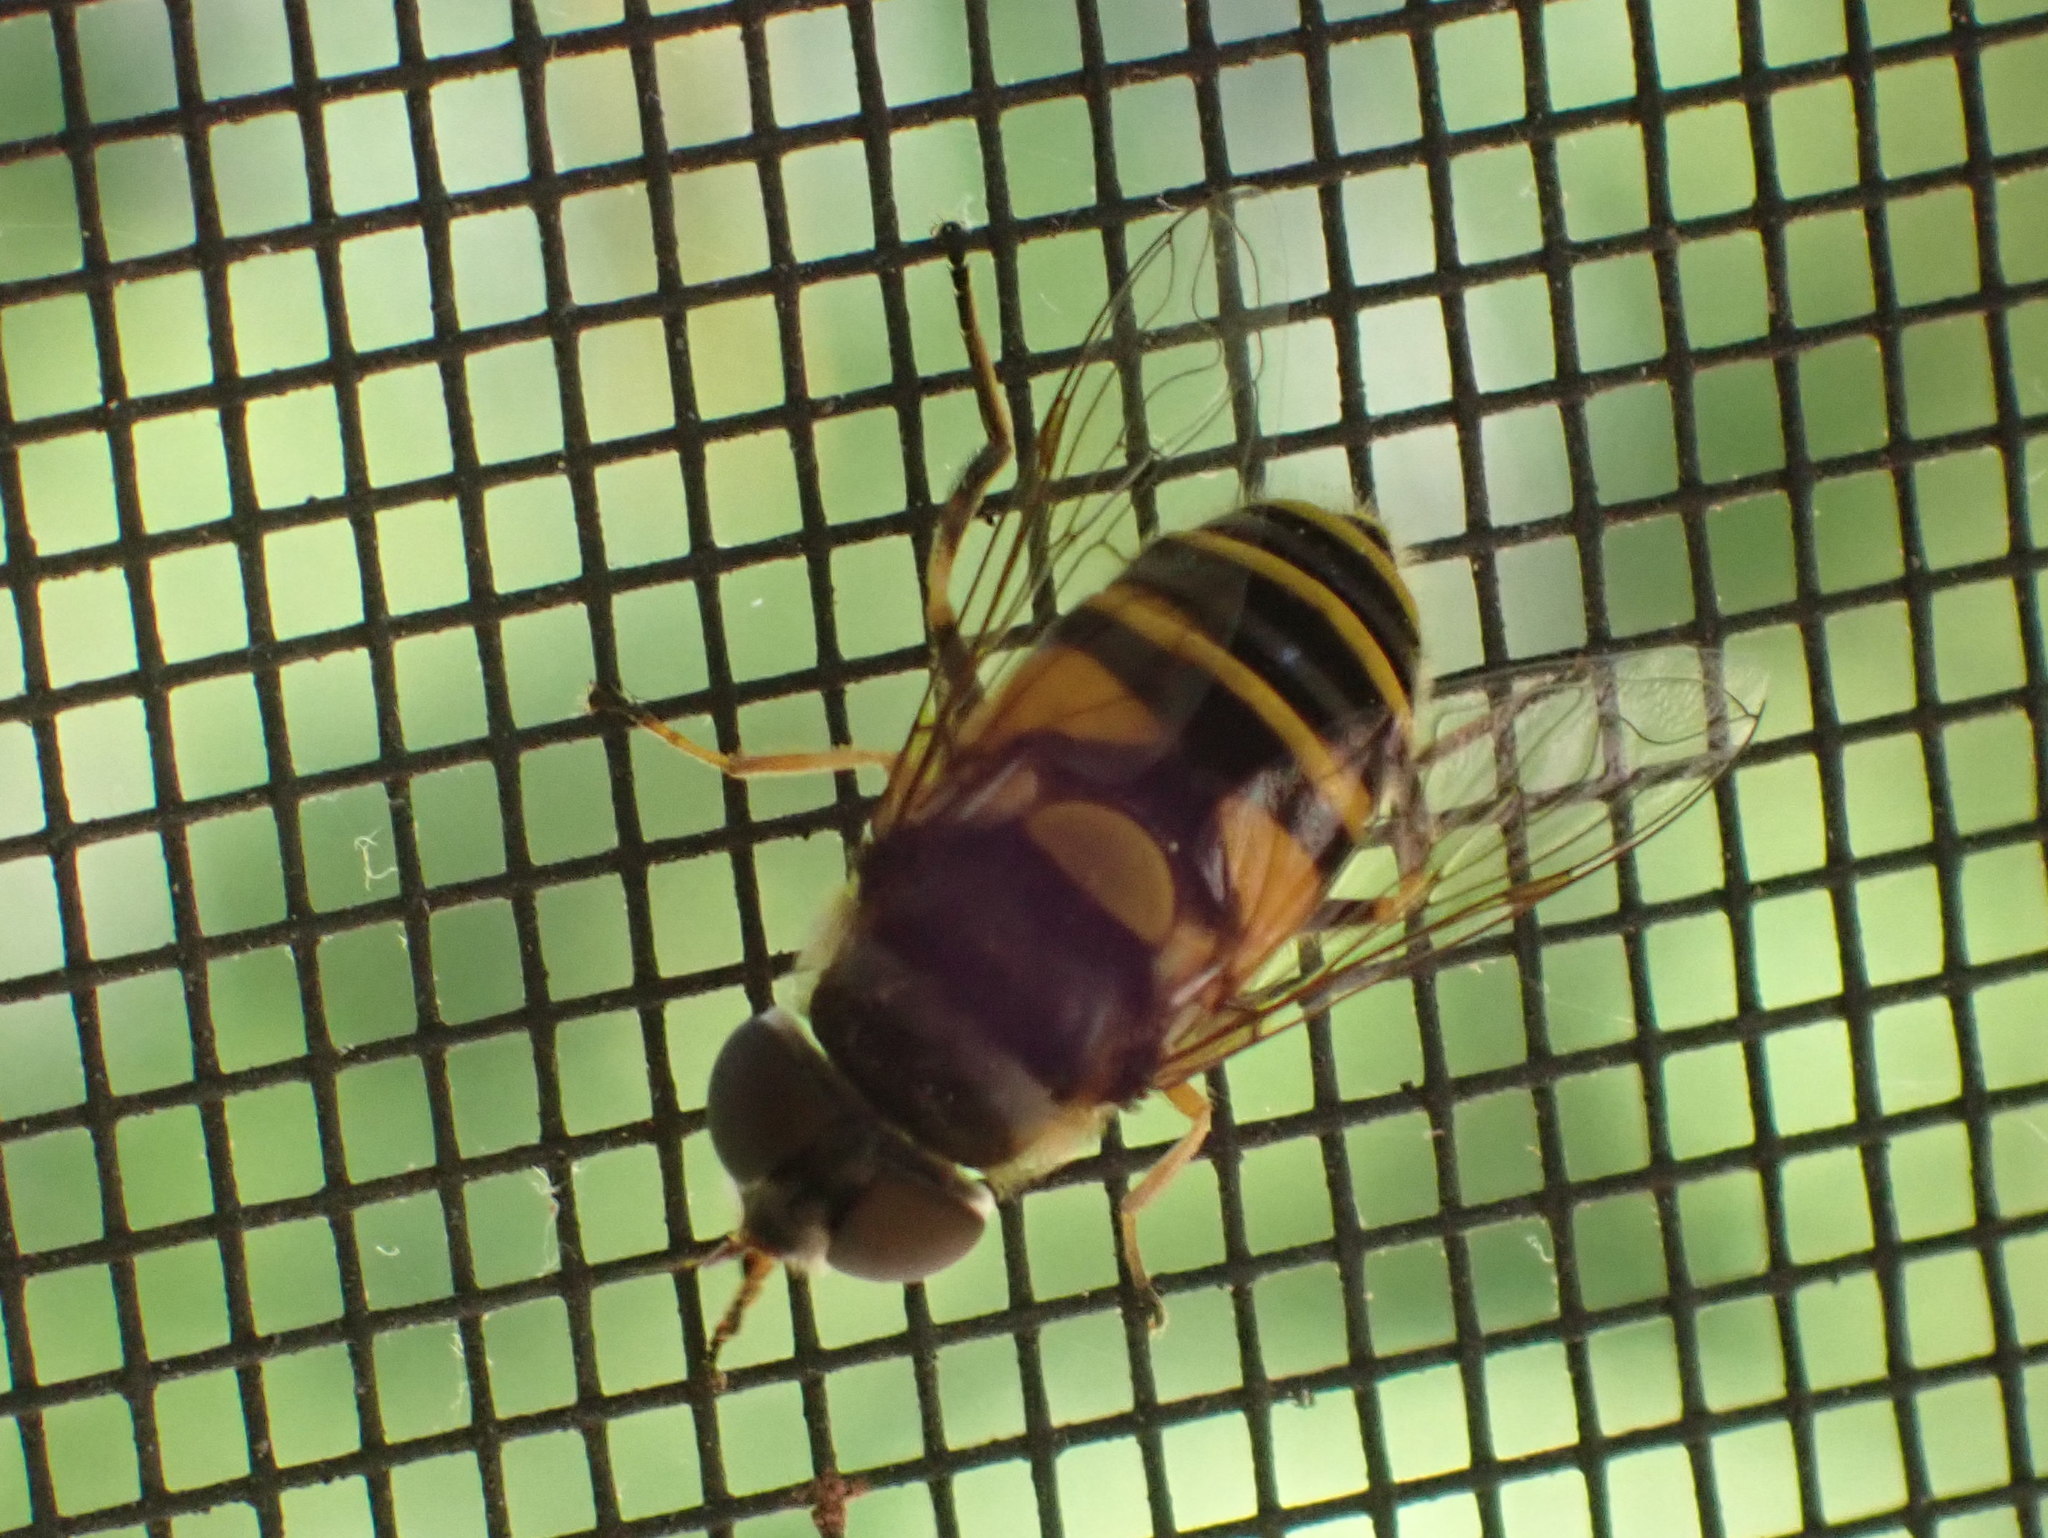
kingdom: Animalia
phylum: Arthropoda
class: Insecta
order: Diptera
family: Syrphidae
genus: Eristalis
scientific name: Eristalis transversa
